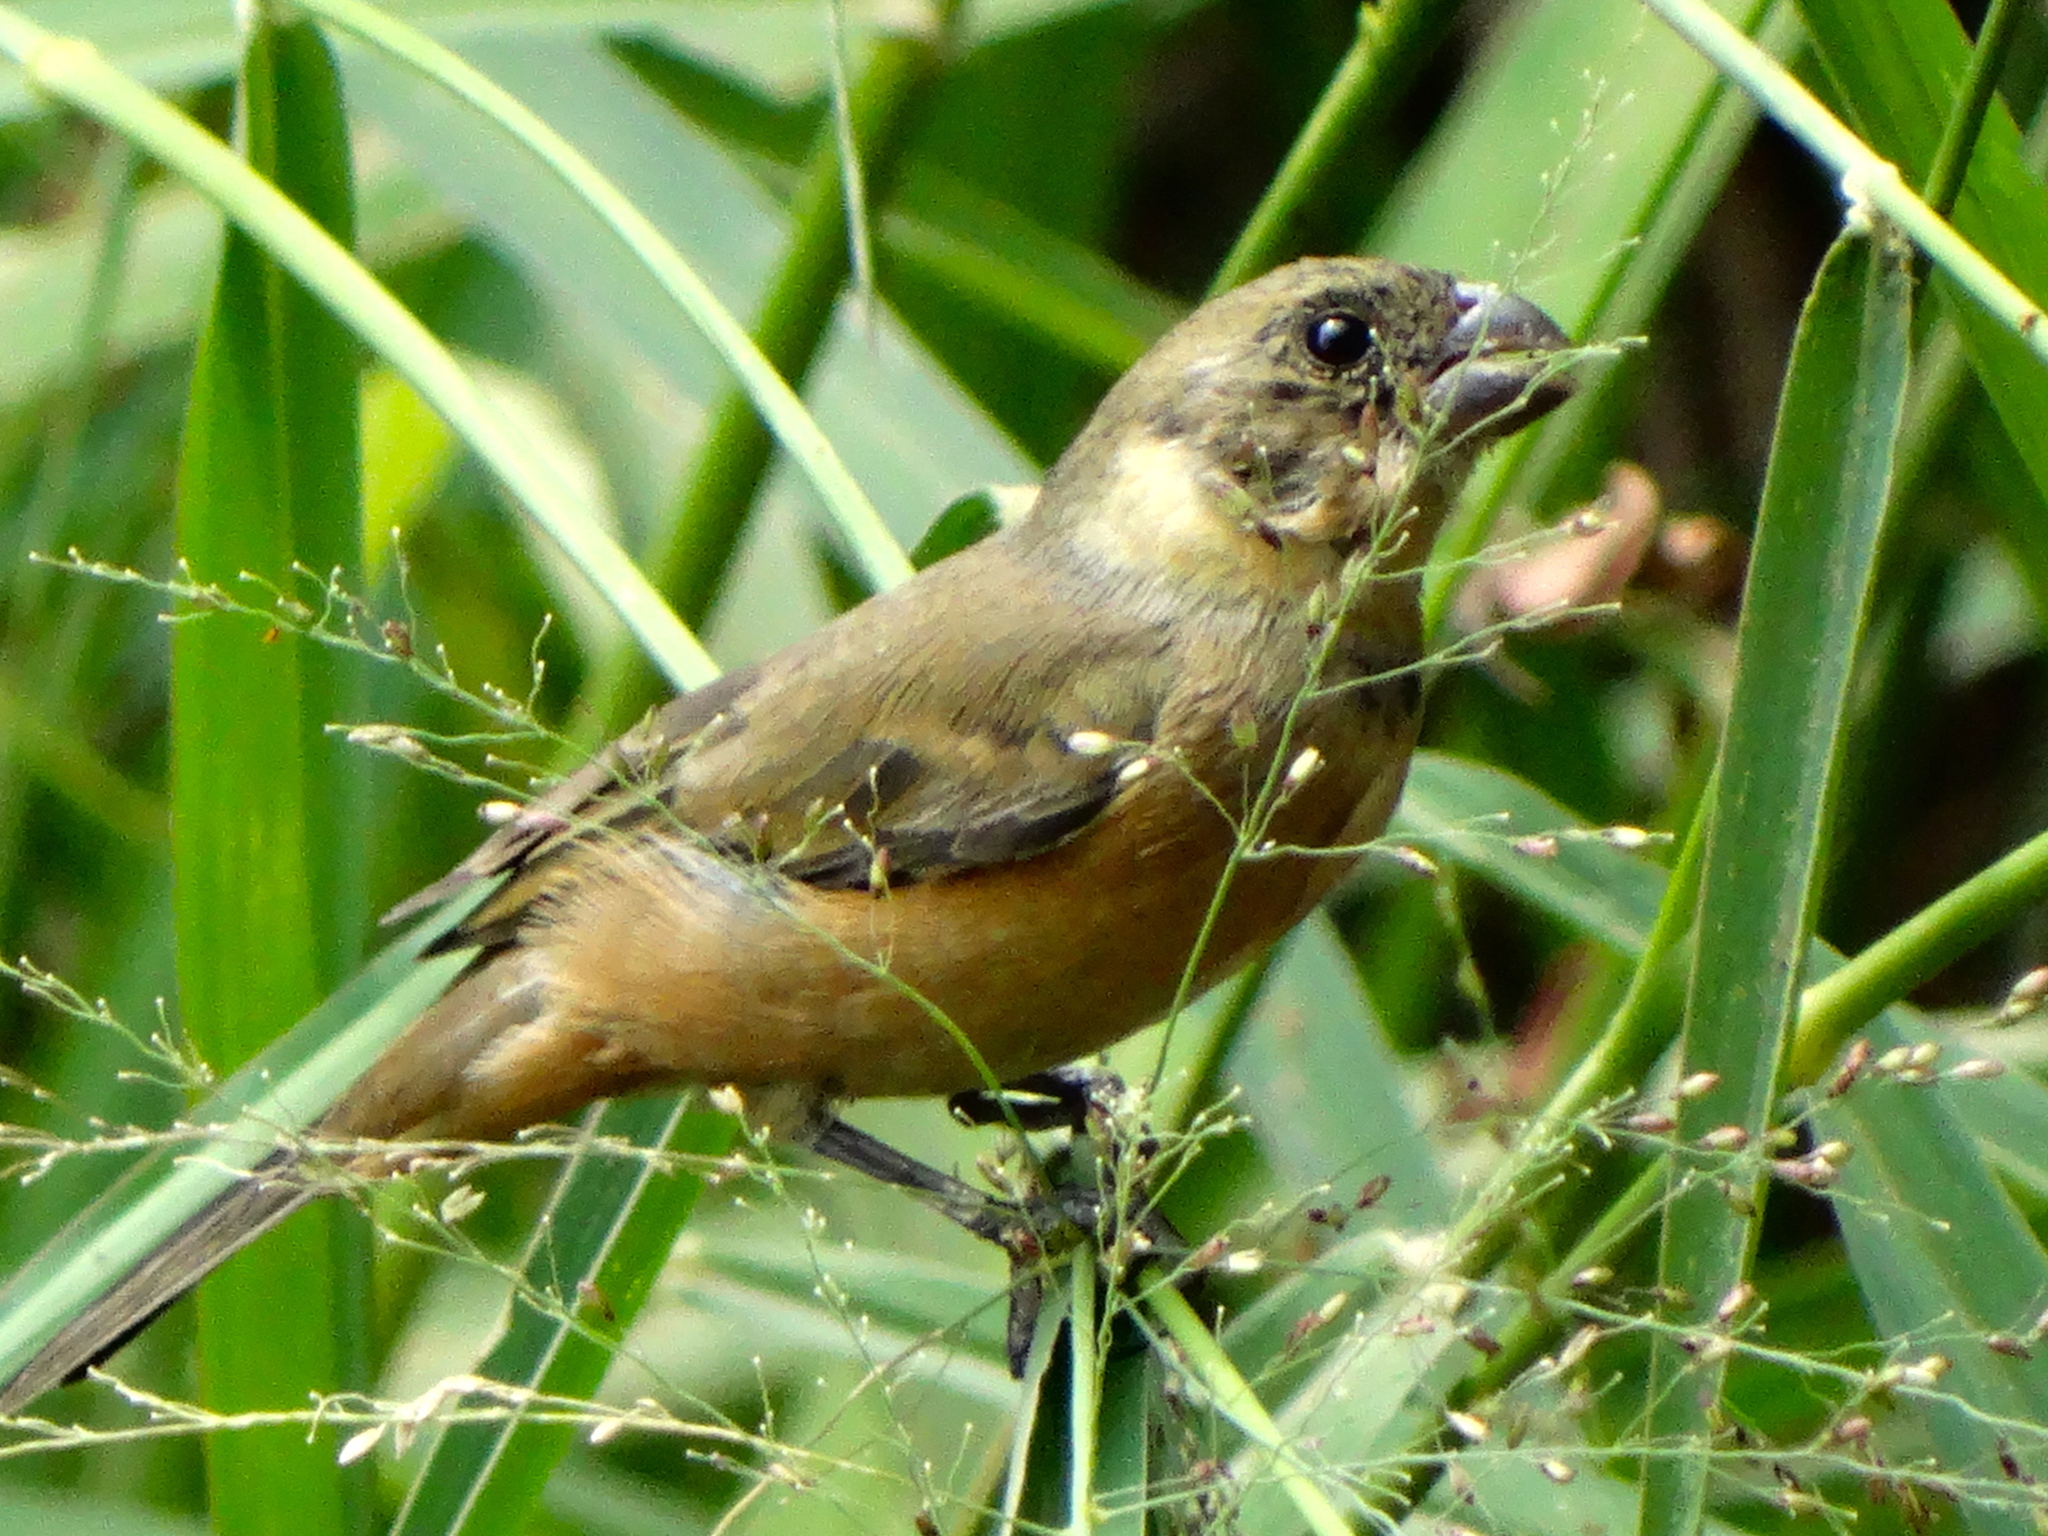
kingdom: Animalia
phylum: Chordata
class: Aves
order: Passeriformes
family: Thraupidae
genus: Sporophila
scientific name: Sporophila torqueola
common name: White-collared seedeater
